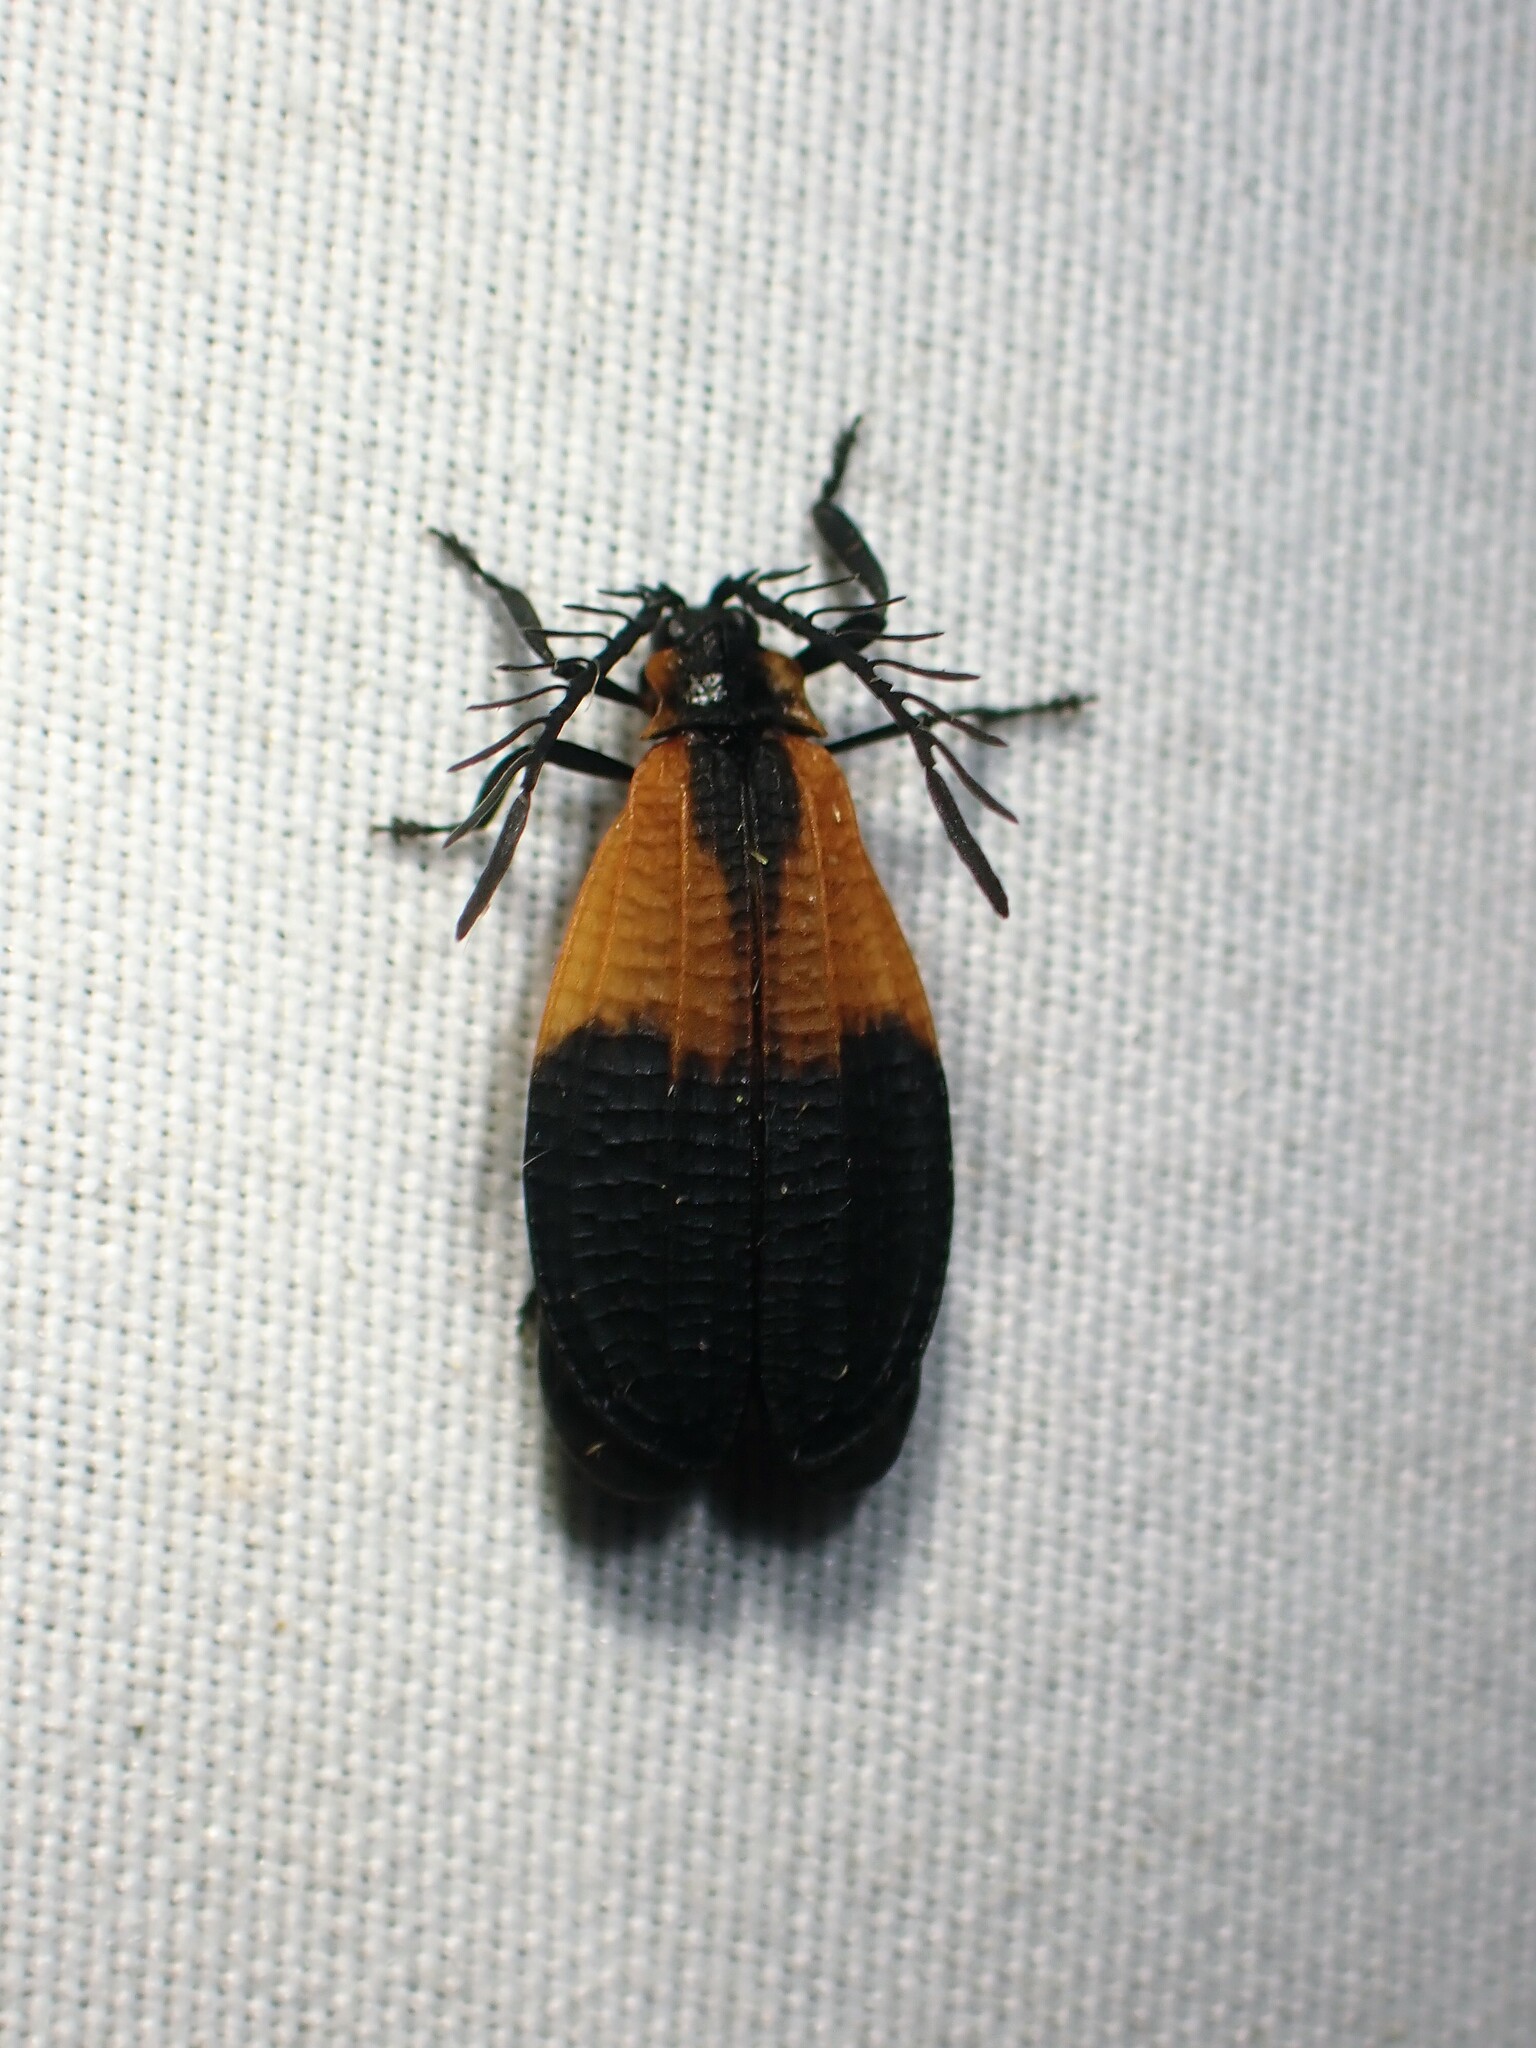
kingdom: Animalia
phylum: Arthropoda
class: Insecta
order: Coleoptera
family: Lycidae
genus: Caenia
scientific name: Caenia dimidiata
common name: Terminal net-winged beetle
